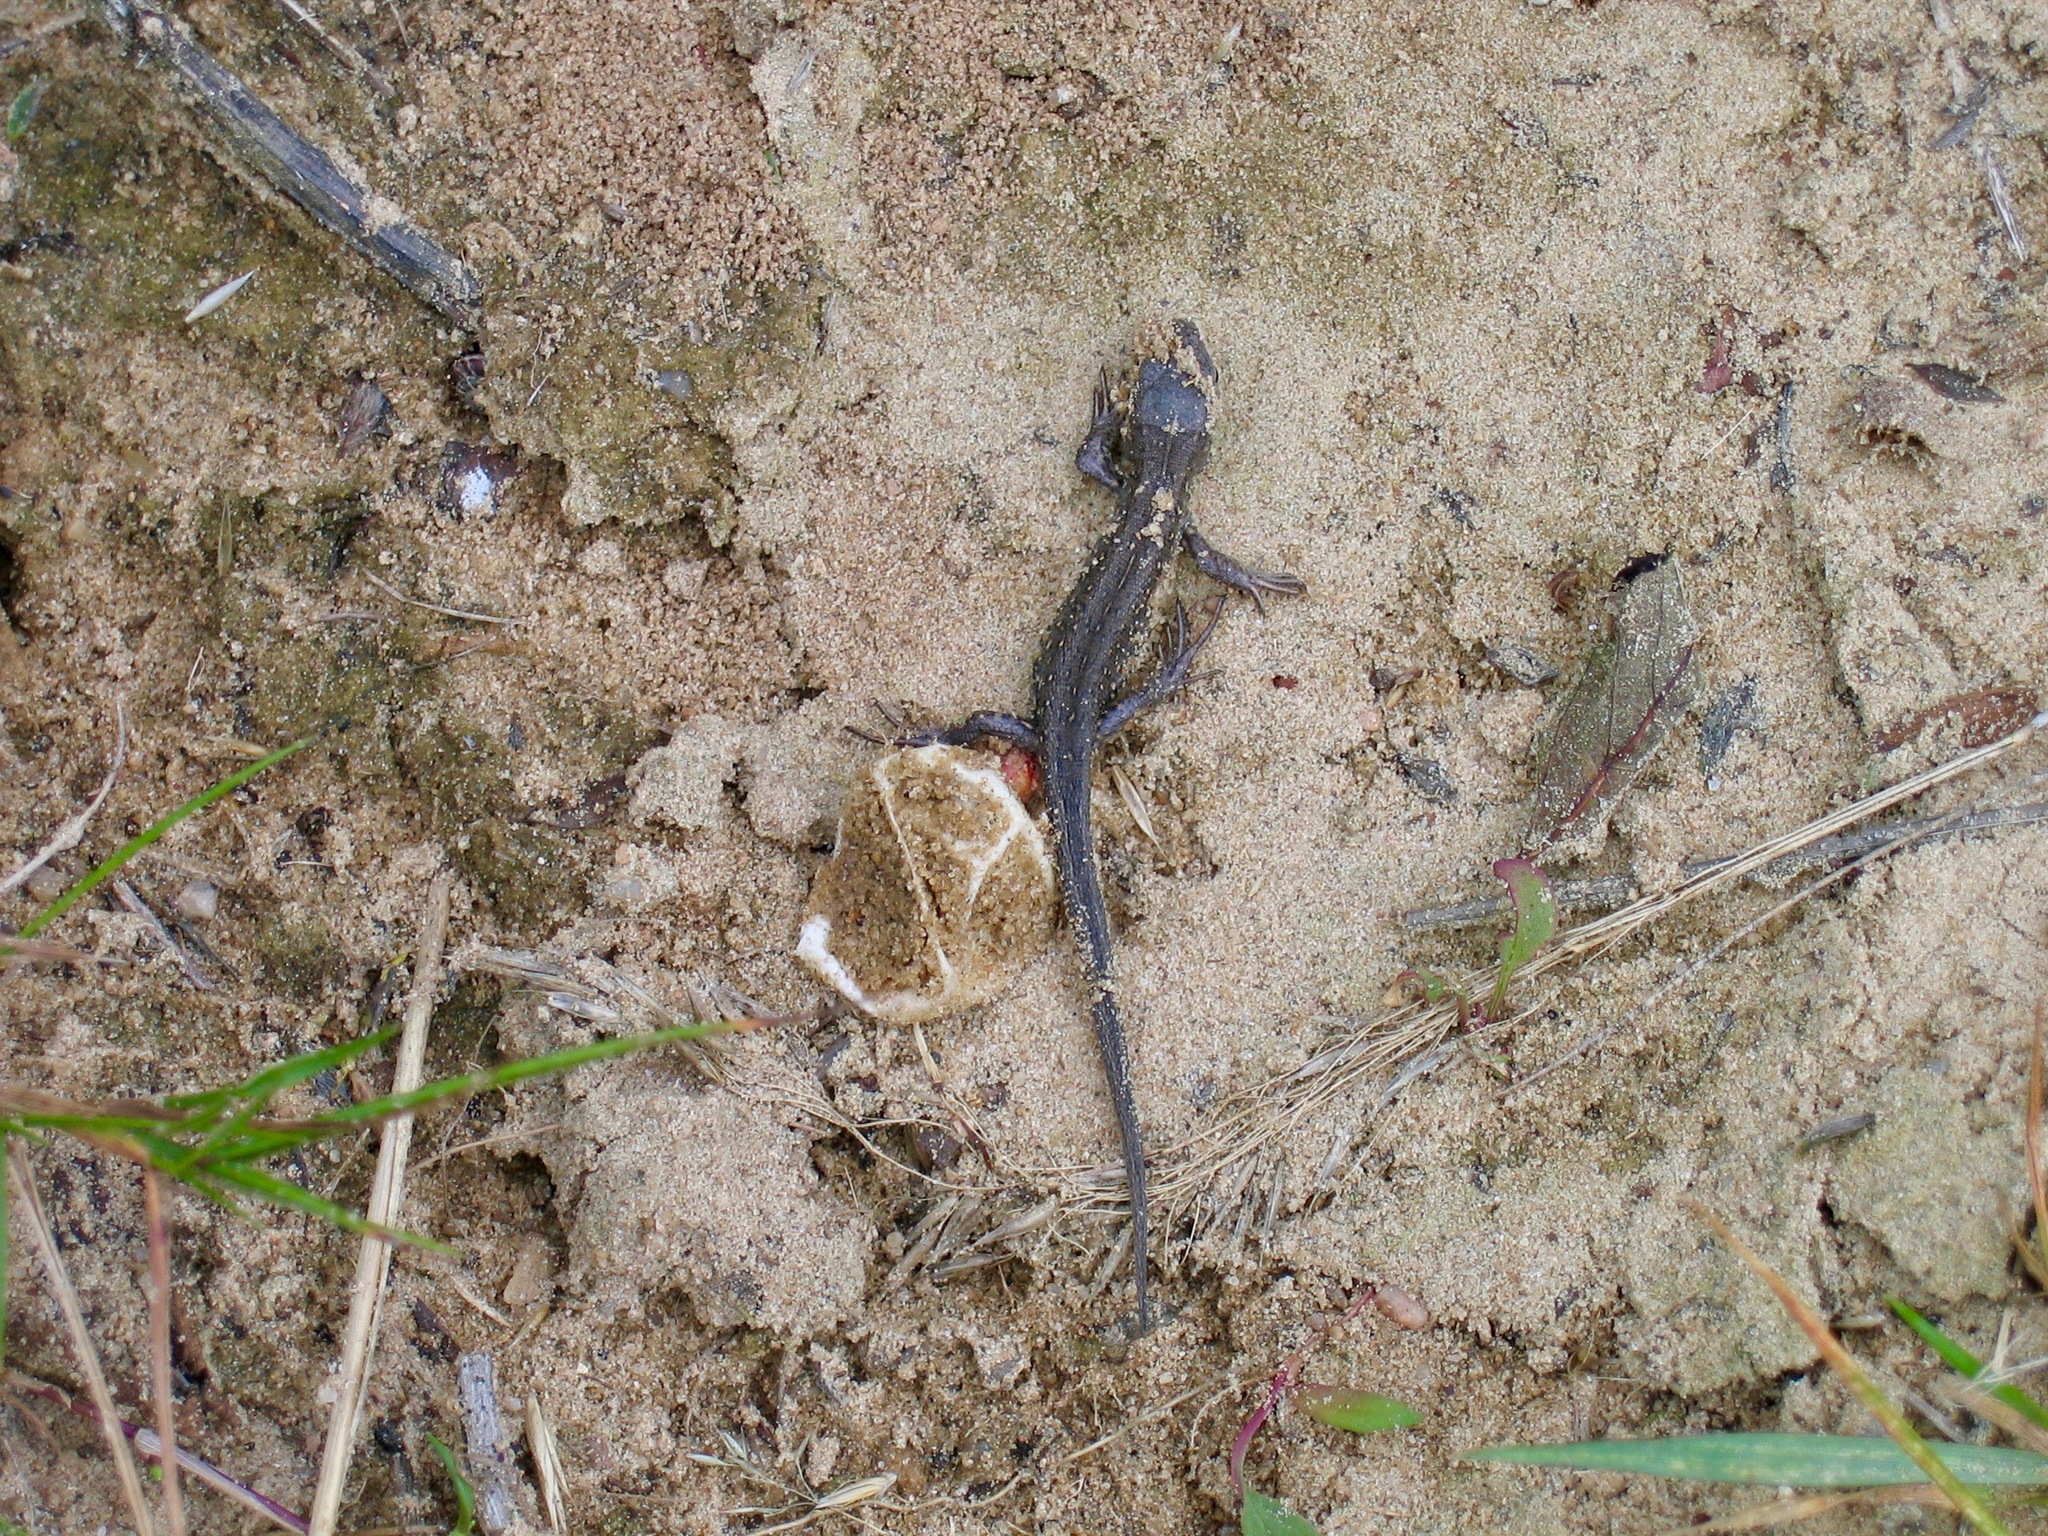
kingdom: Animalia
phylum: Chordata
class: Squamata
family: Lacertidae
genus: Lacerta
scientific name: Lacerta agilis
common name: Sand lizard
